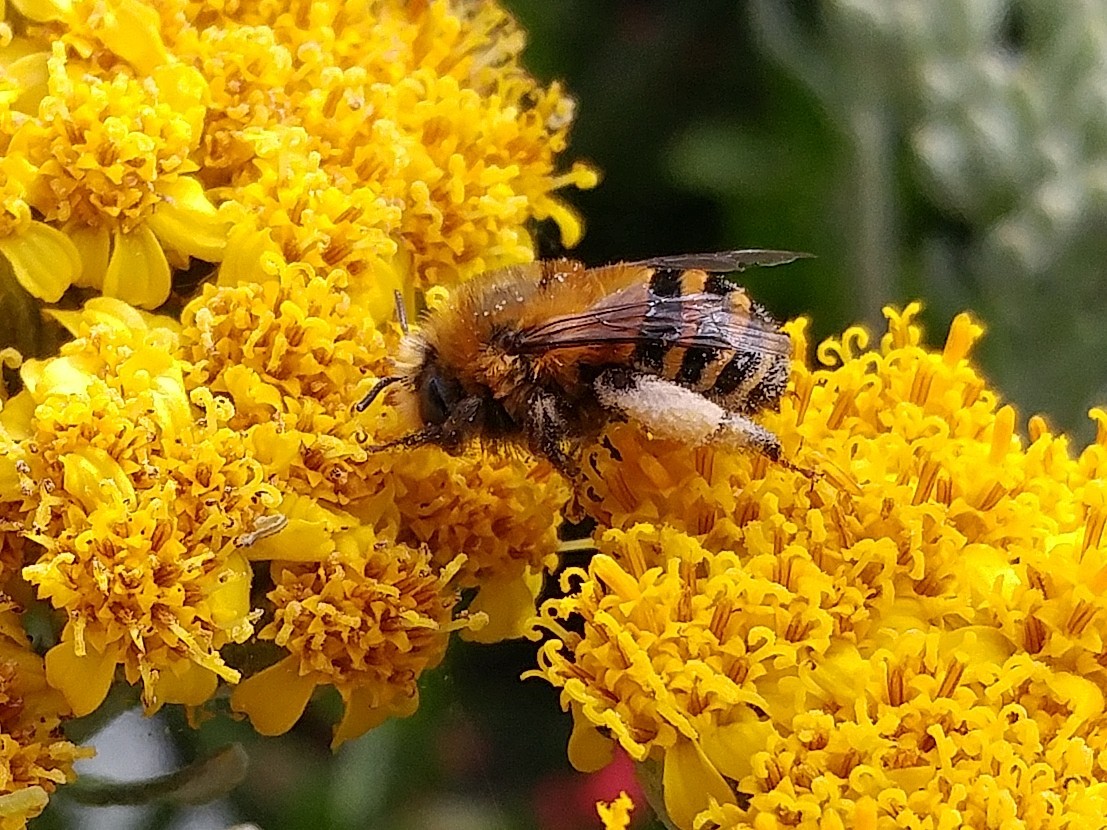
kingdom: Animalia
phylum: Arthropoda
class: Insecta
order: Hymenoptera
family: Apidae
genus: Anthophora
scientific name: Anthophora urbana
